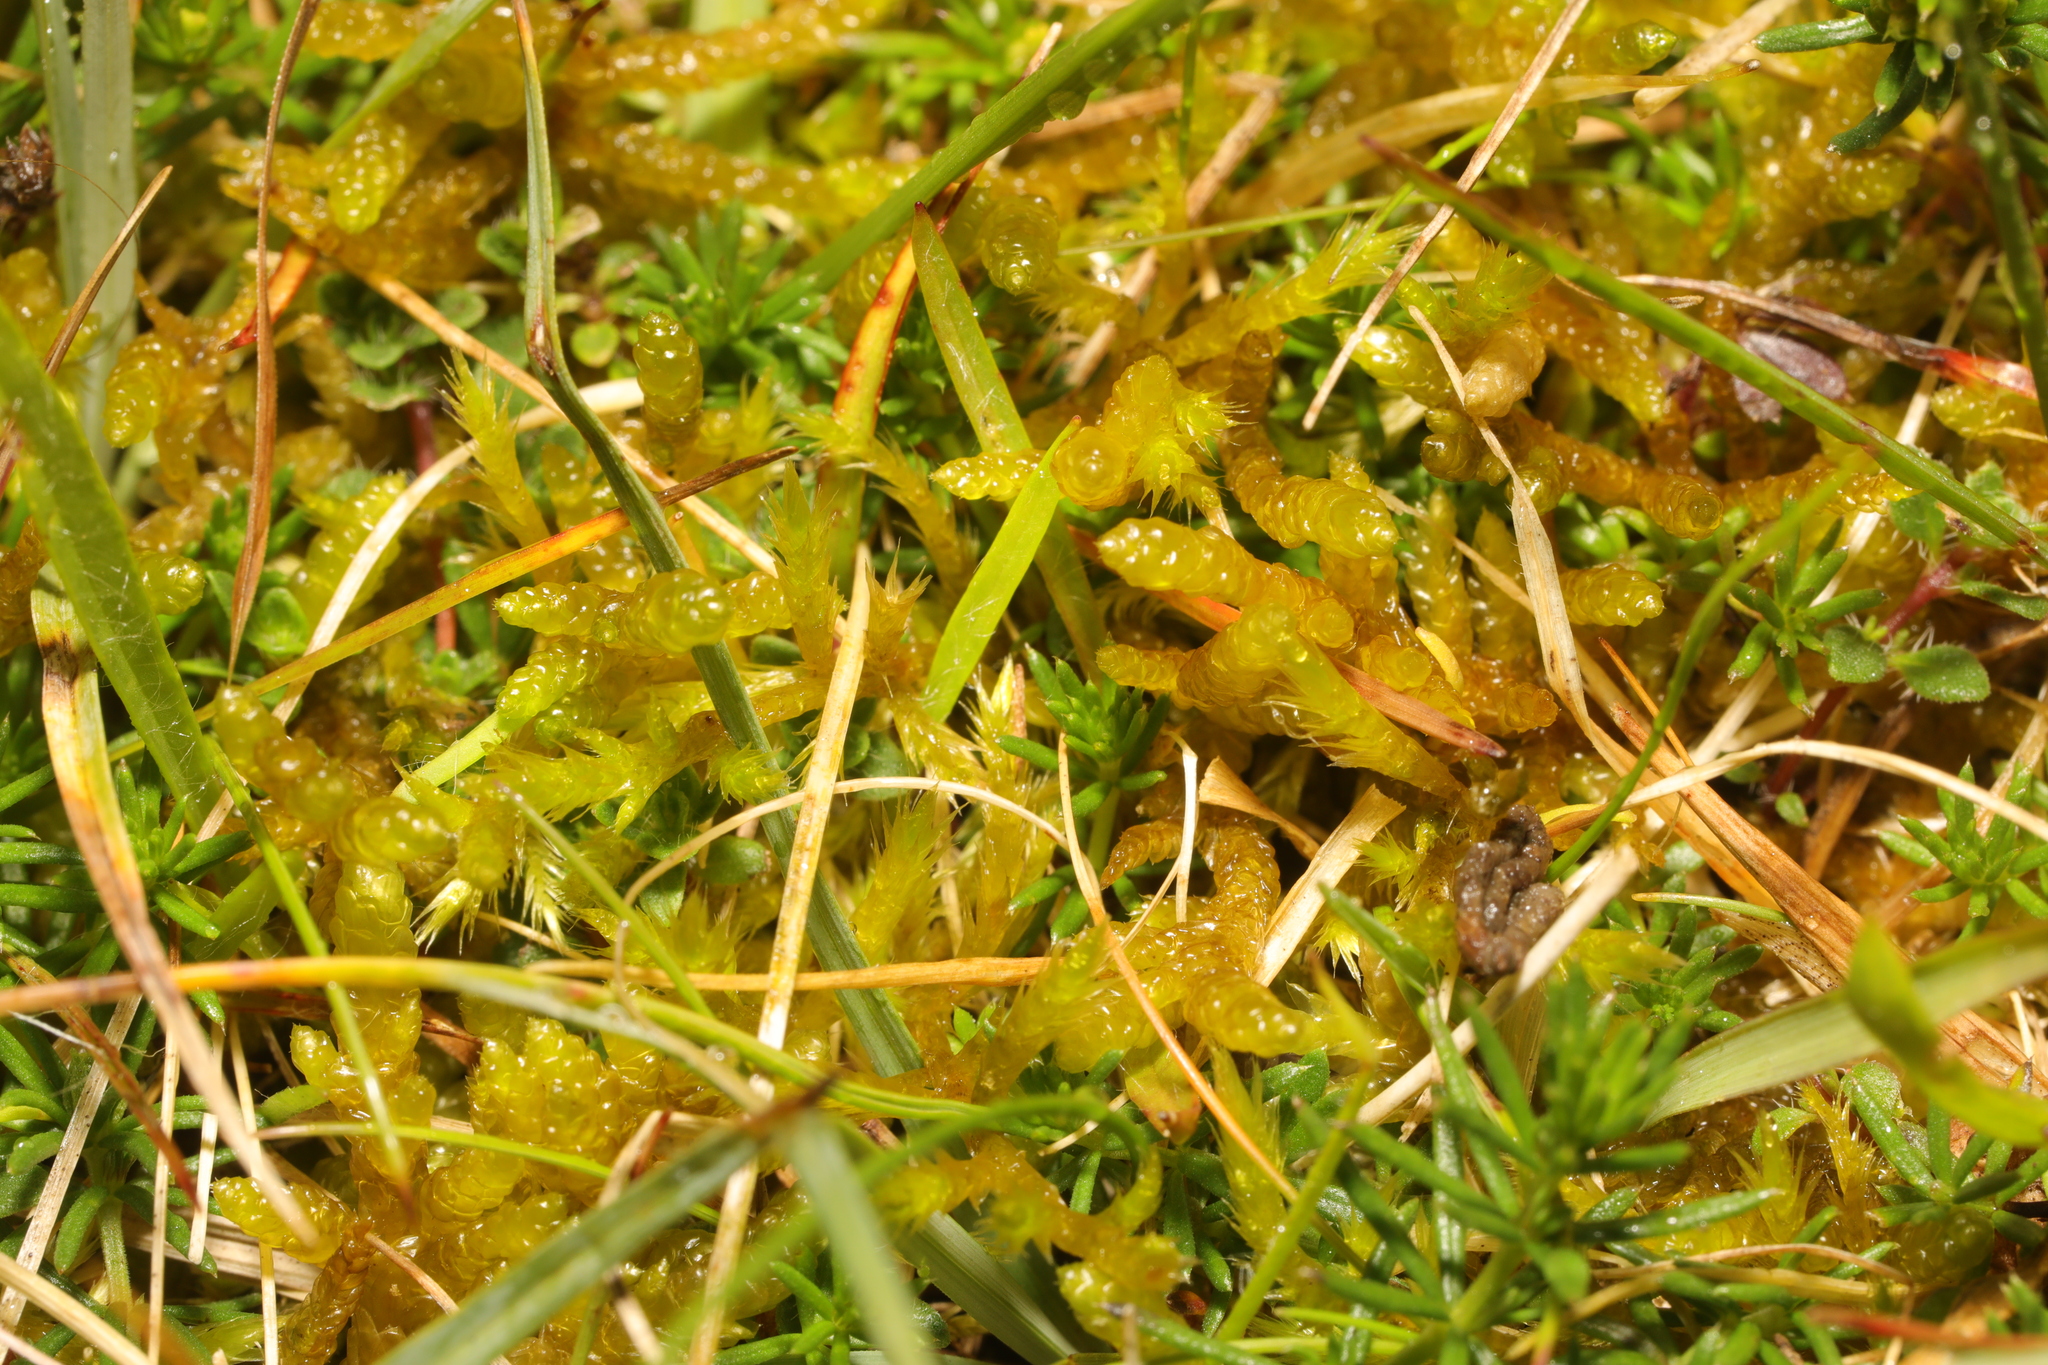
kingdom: Plantae
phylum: Bryophyta
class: Bryopsida
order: Hypnales
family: Brachytheciaceae
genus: Pseudoscleropodium
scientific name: Pseudoscleropodium purum
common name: Neat feather-moss
